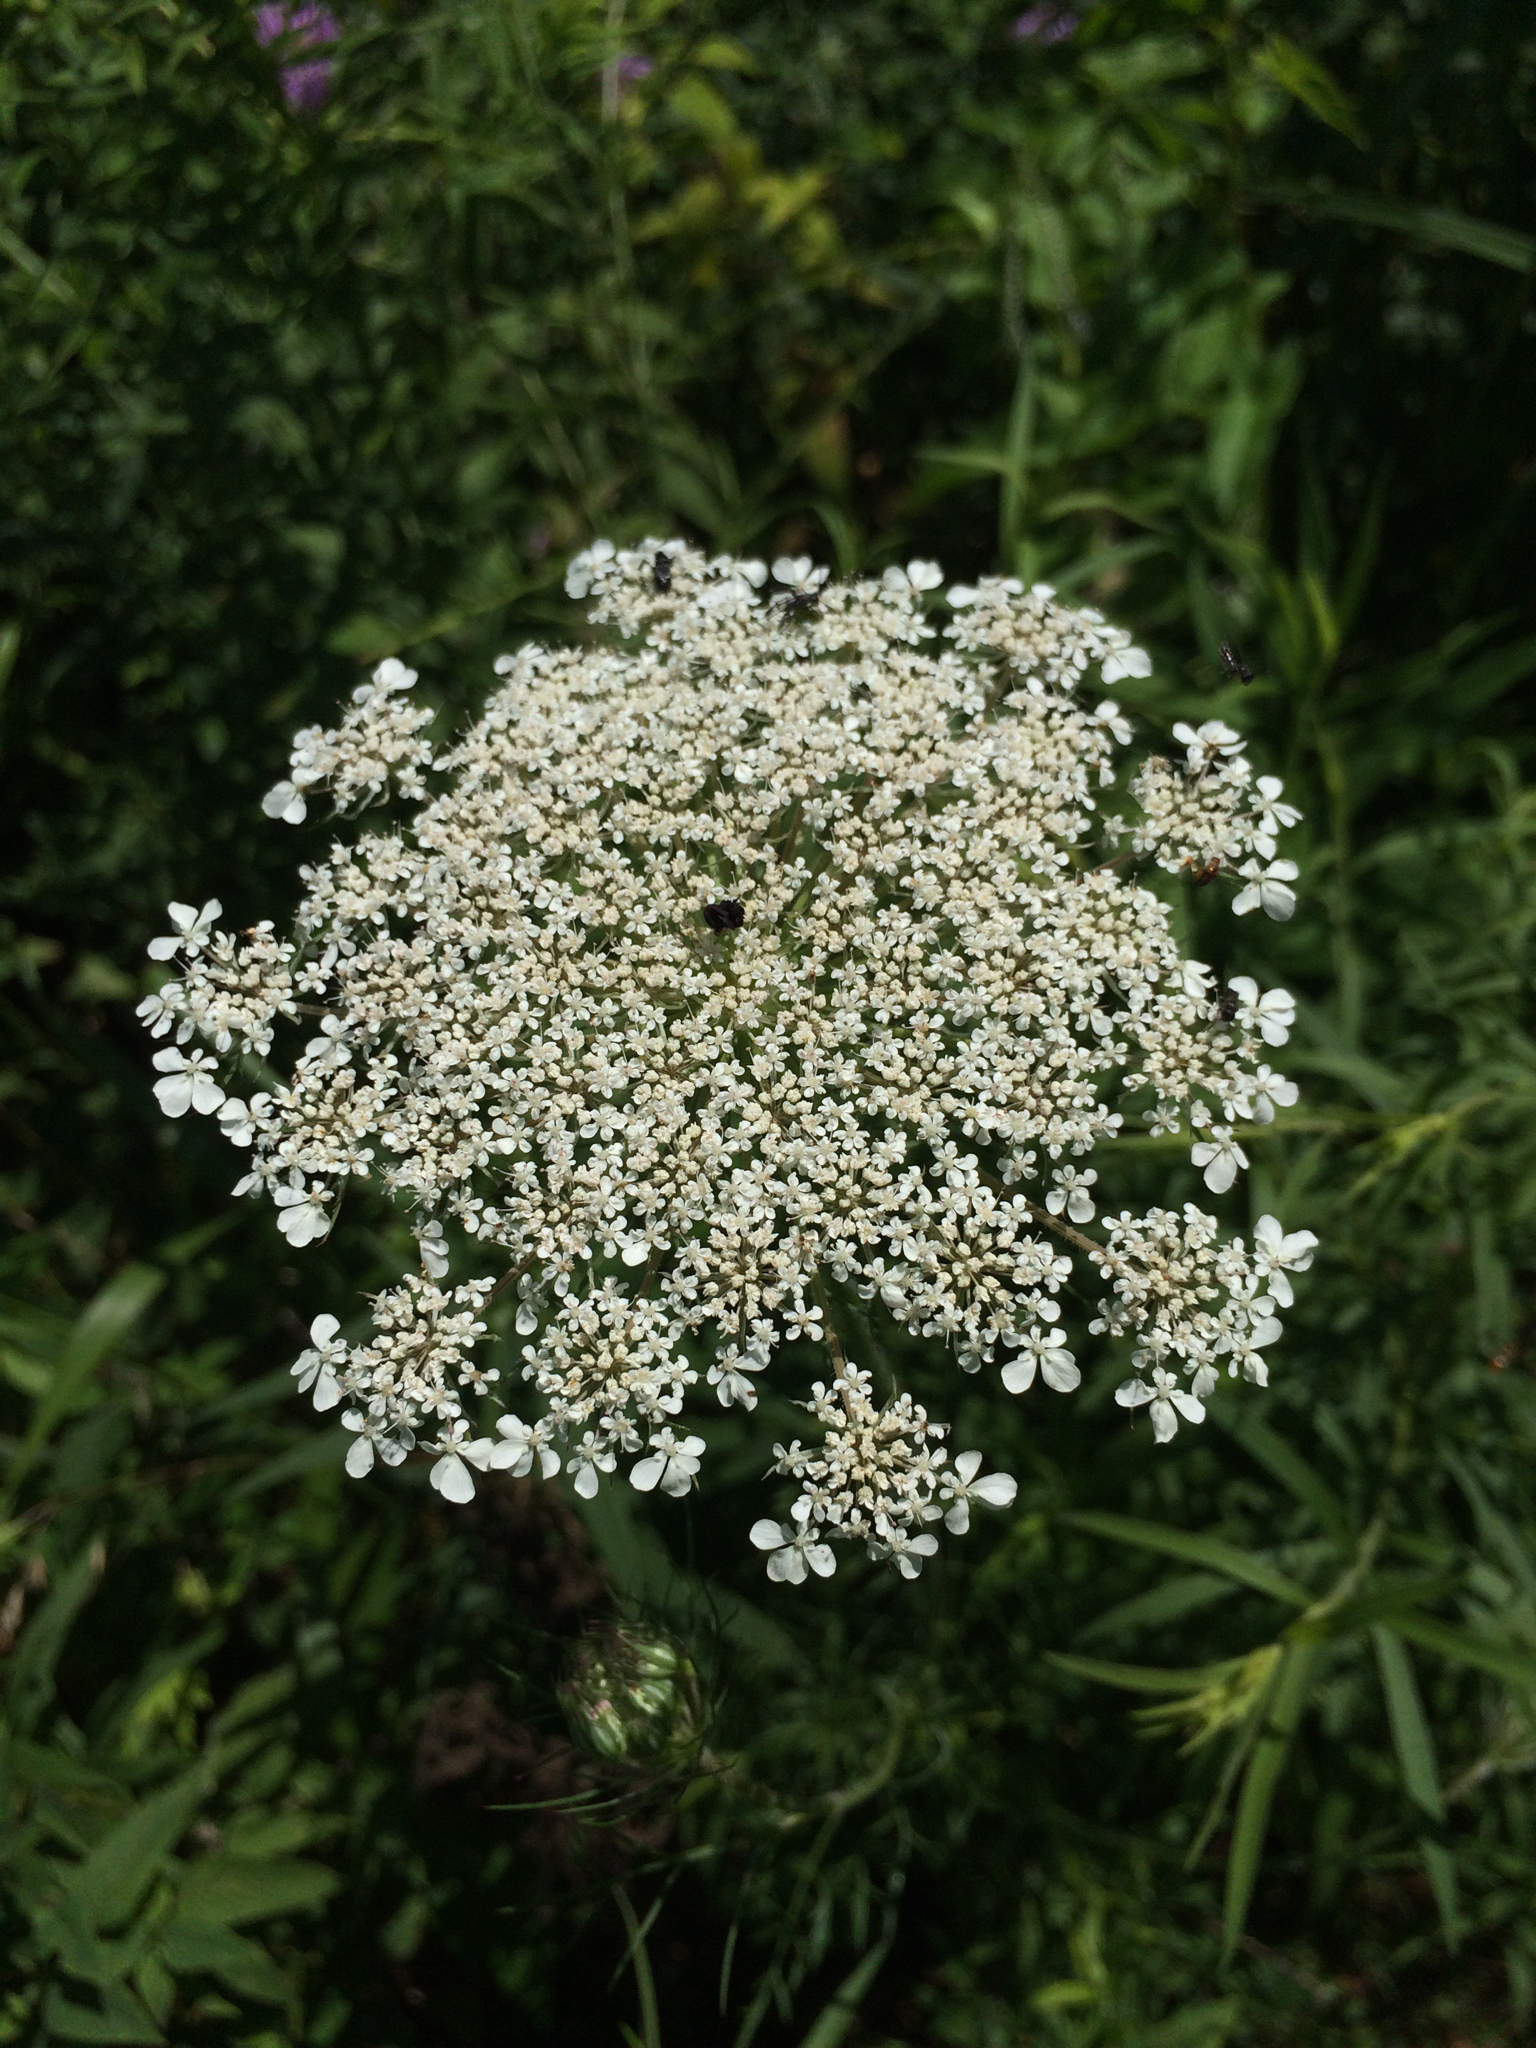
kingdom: Plantae
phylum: Tracheophyta
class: Magnoliopsida
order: Apiales
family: Apiaceae
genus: Daucus
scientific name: Daucus carota
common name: Wild carrot
